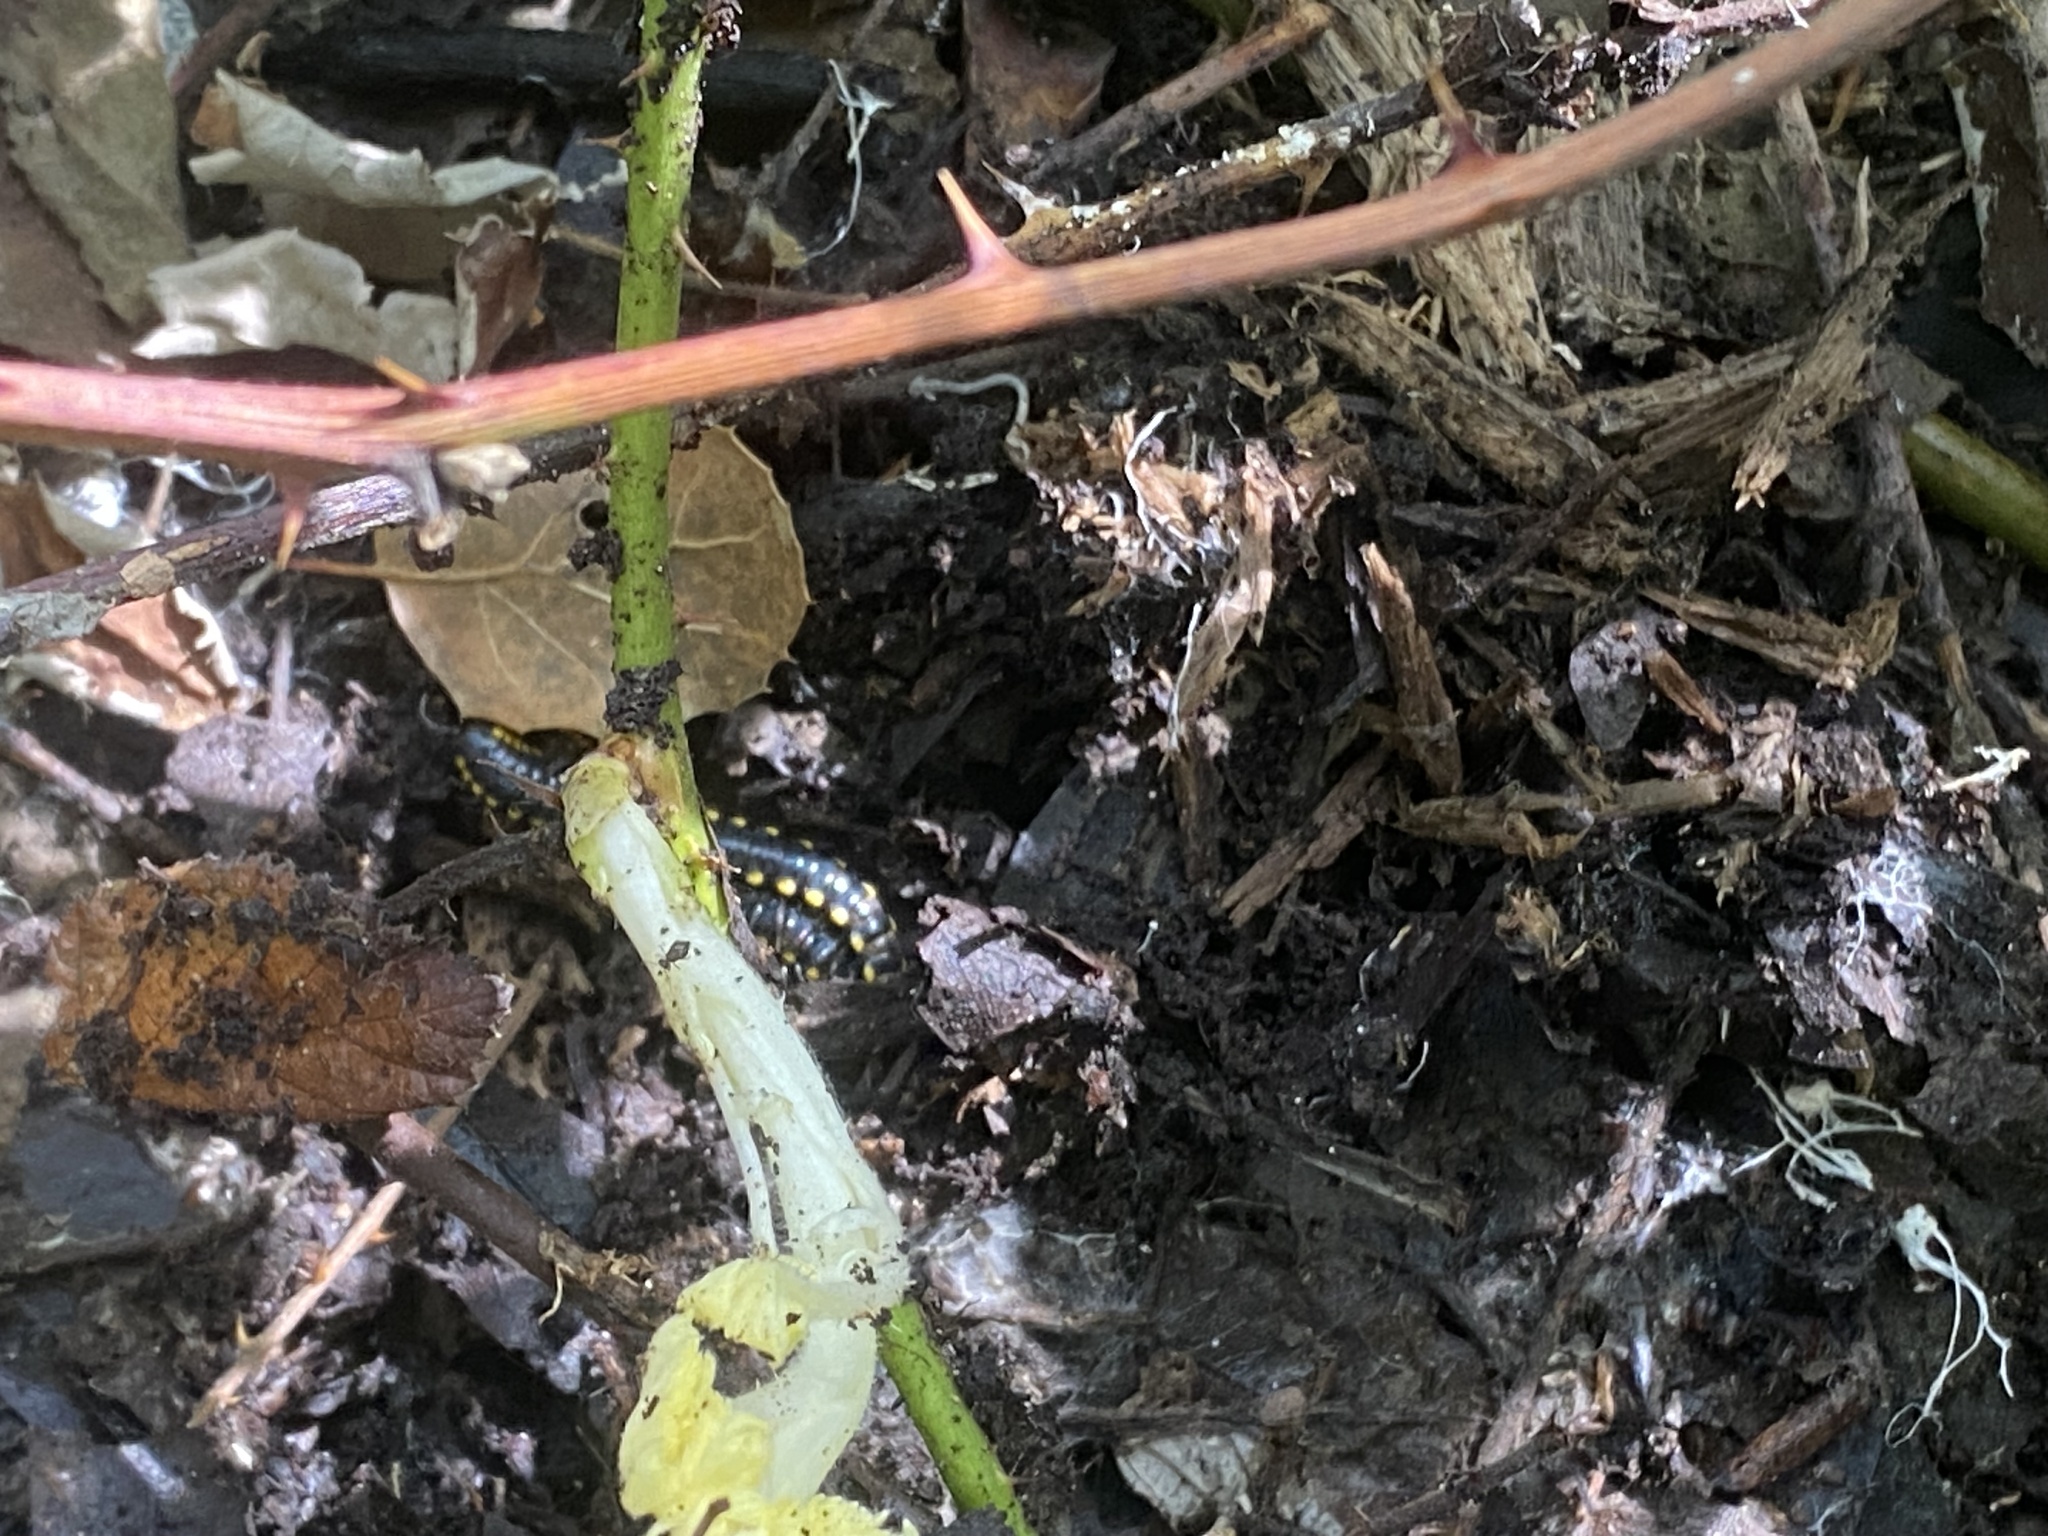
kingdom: Animalia
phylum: Arthropoda
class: Diplopoda
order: Polydesmida
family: Xystodesmidae
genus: Harpaphe
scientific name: Harpaphe haydeniana
